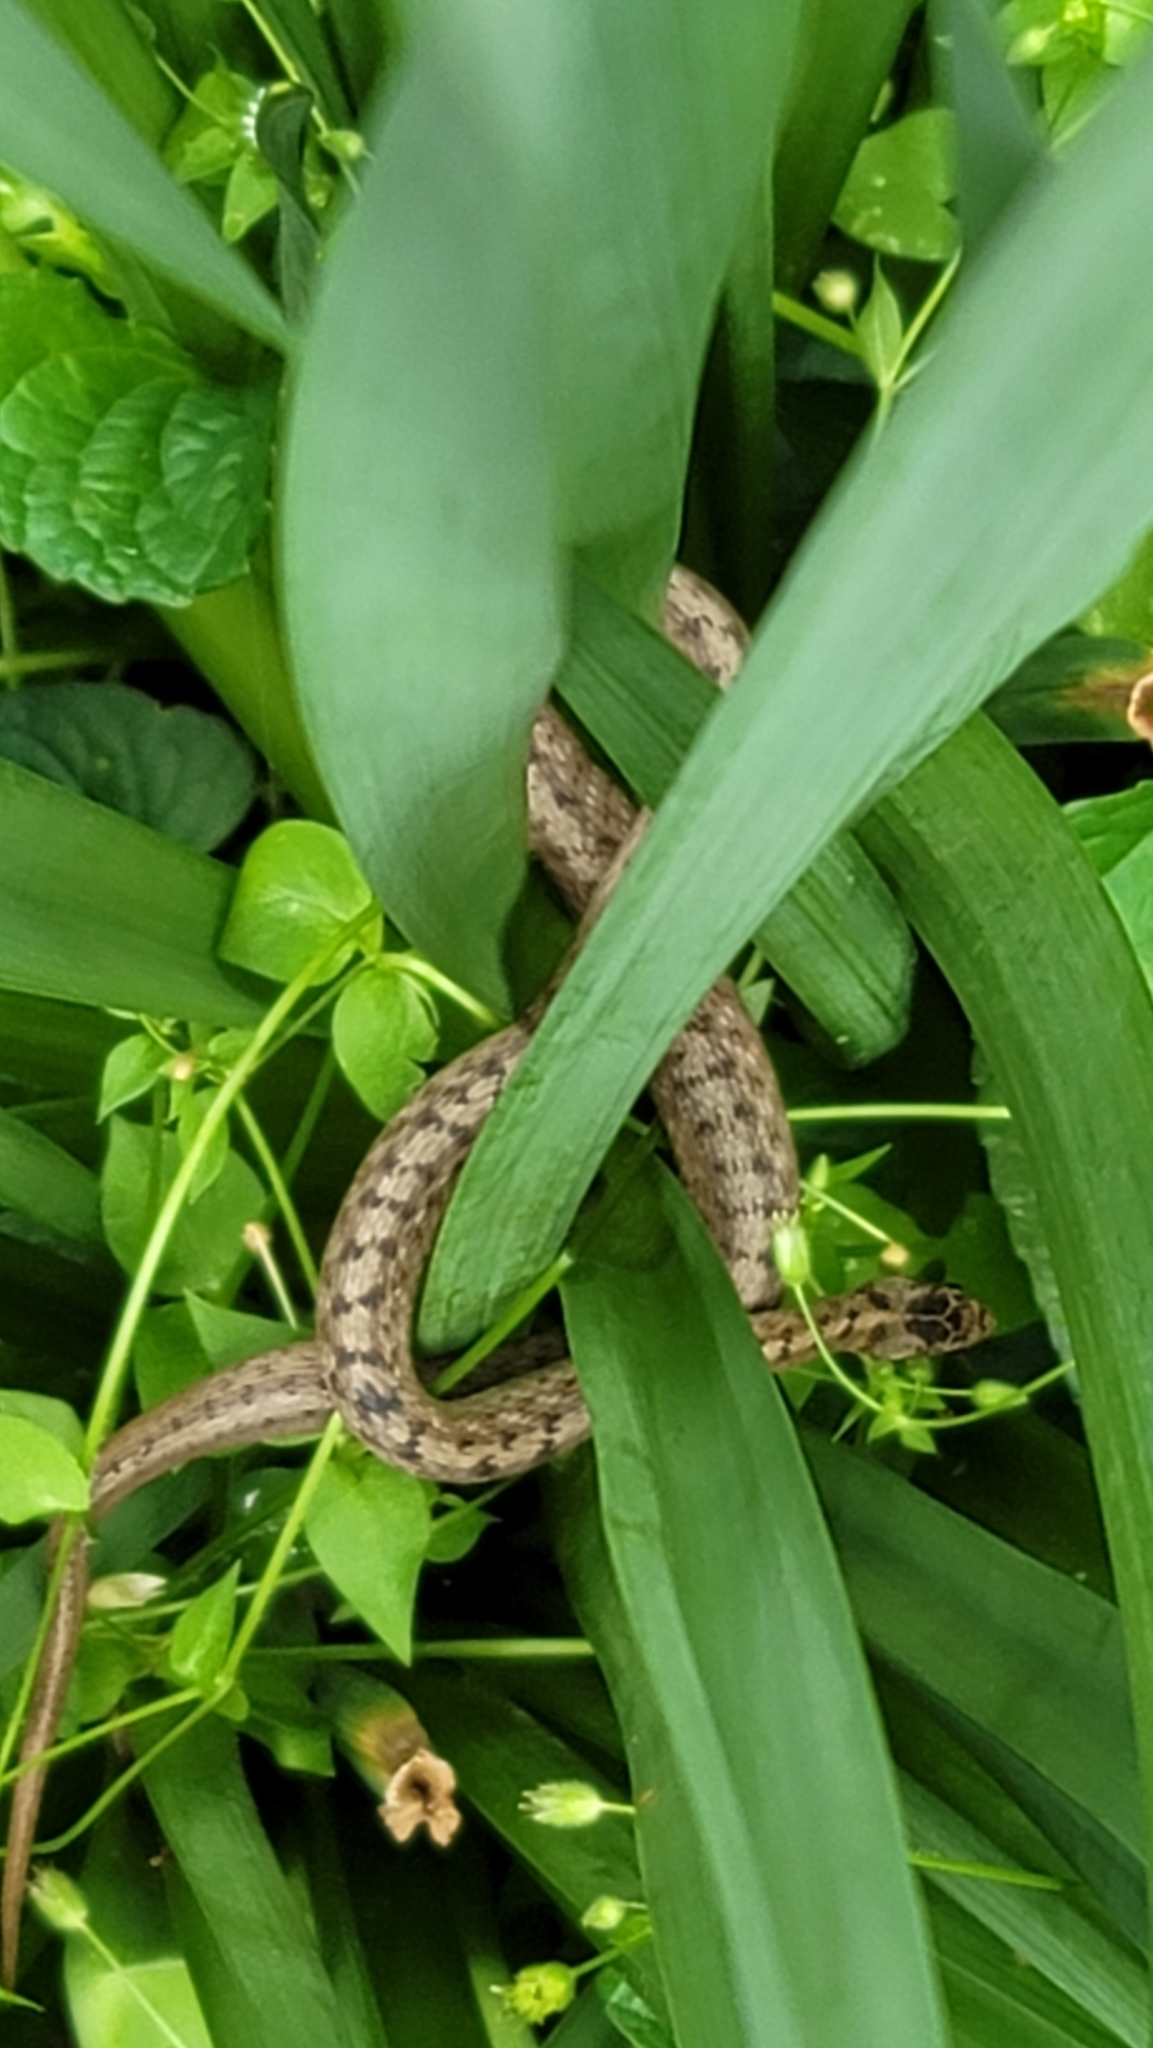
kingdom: Animalia
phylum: Chordata
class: Squamata
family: Colubridae
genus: Storeria
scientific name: Storeria dekayi
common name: (dekay’s) brown snake
